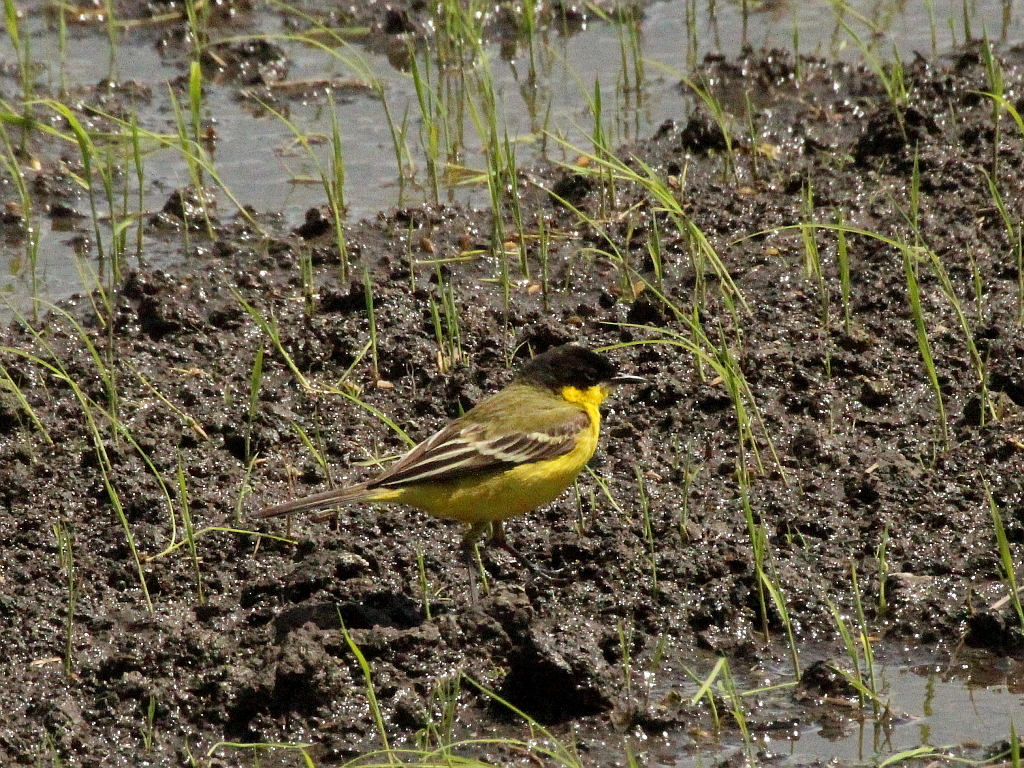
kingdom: Animalia
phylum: Chordata
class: Aves
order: Passeriformes
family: Motacillidae
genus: Motacilla
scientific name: Motacilla flava
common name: Western yellow wagtail
